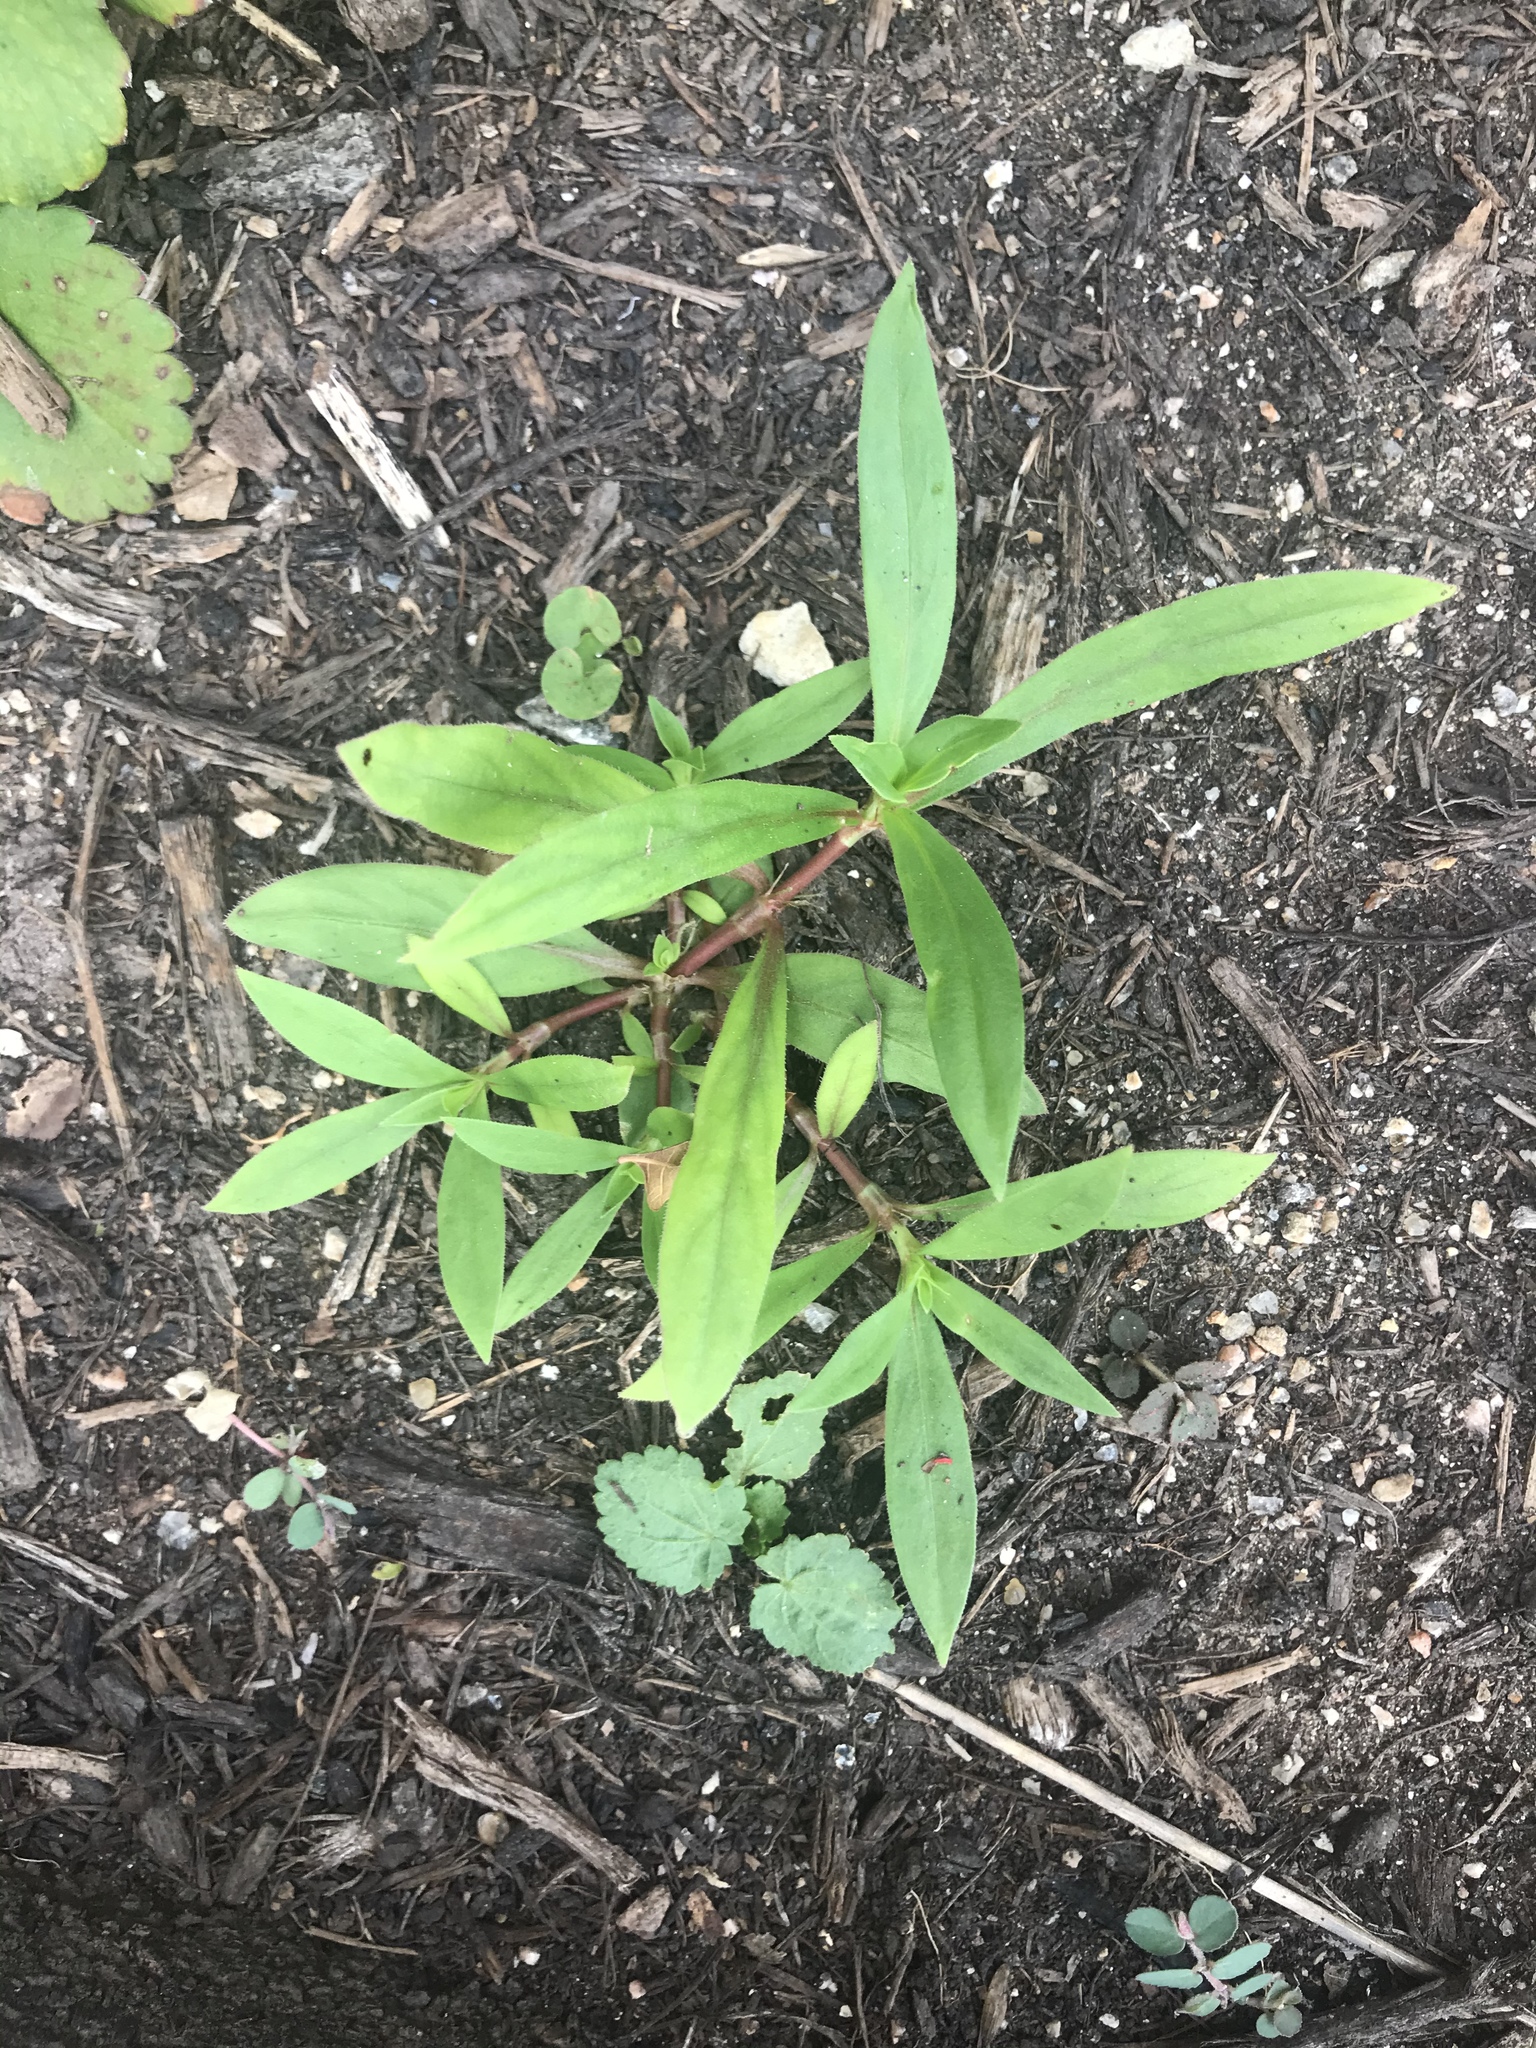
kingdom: Plantae
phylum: Tracheophyta
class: Magnoliopsida
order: Gentianales
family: Rubiaceae
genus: Diodia
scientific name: Diodia virginiana
